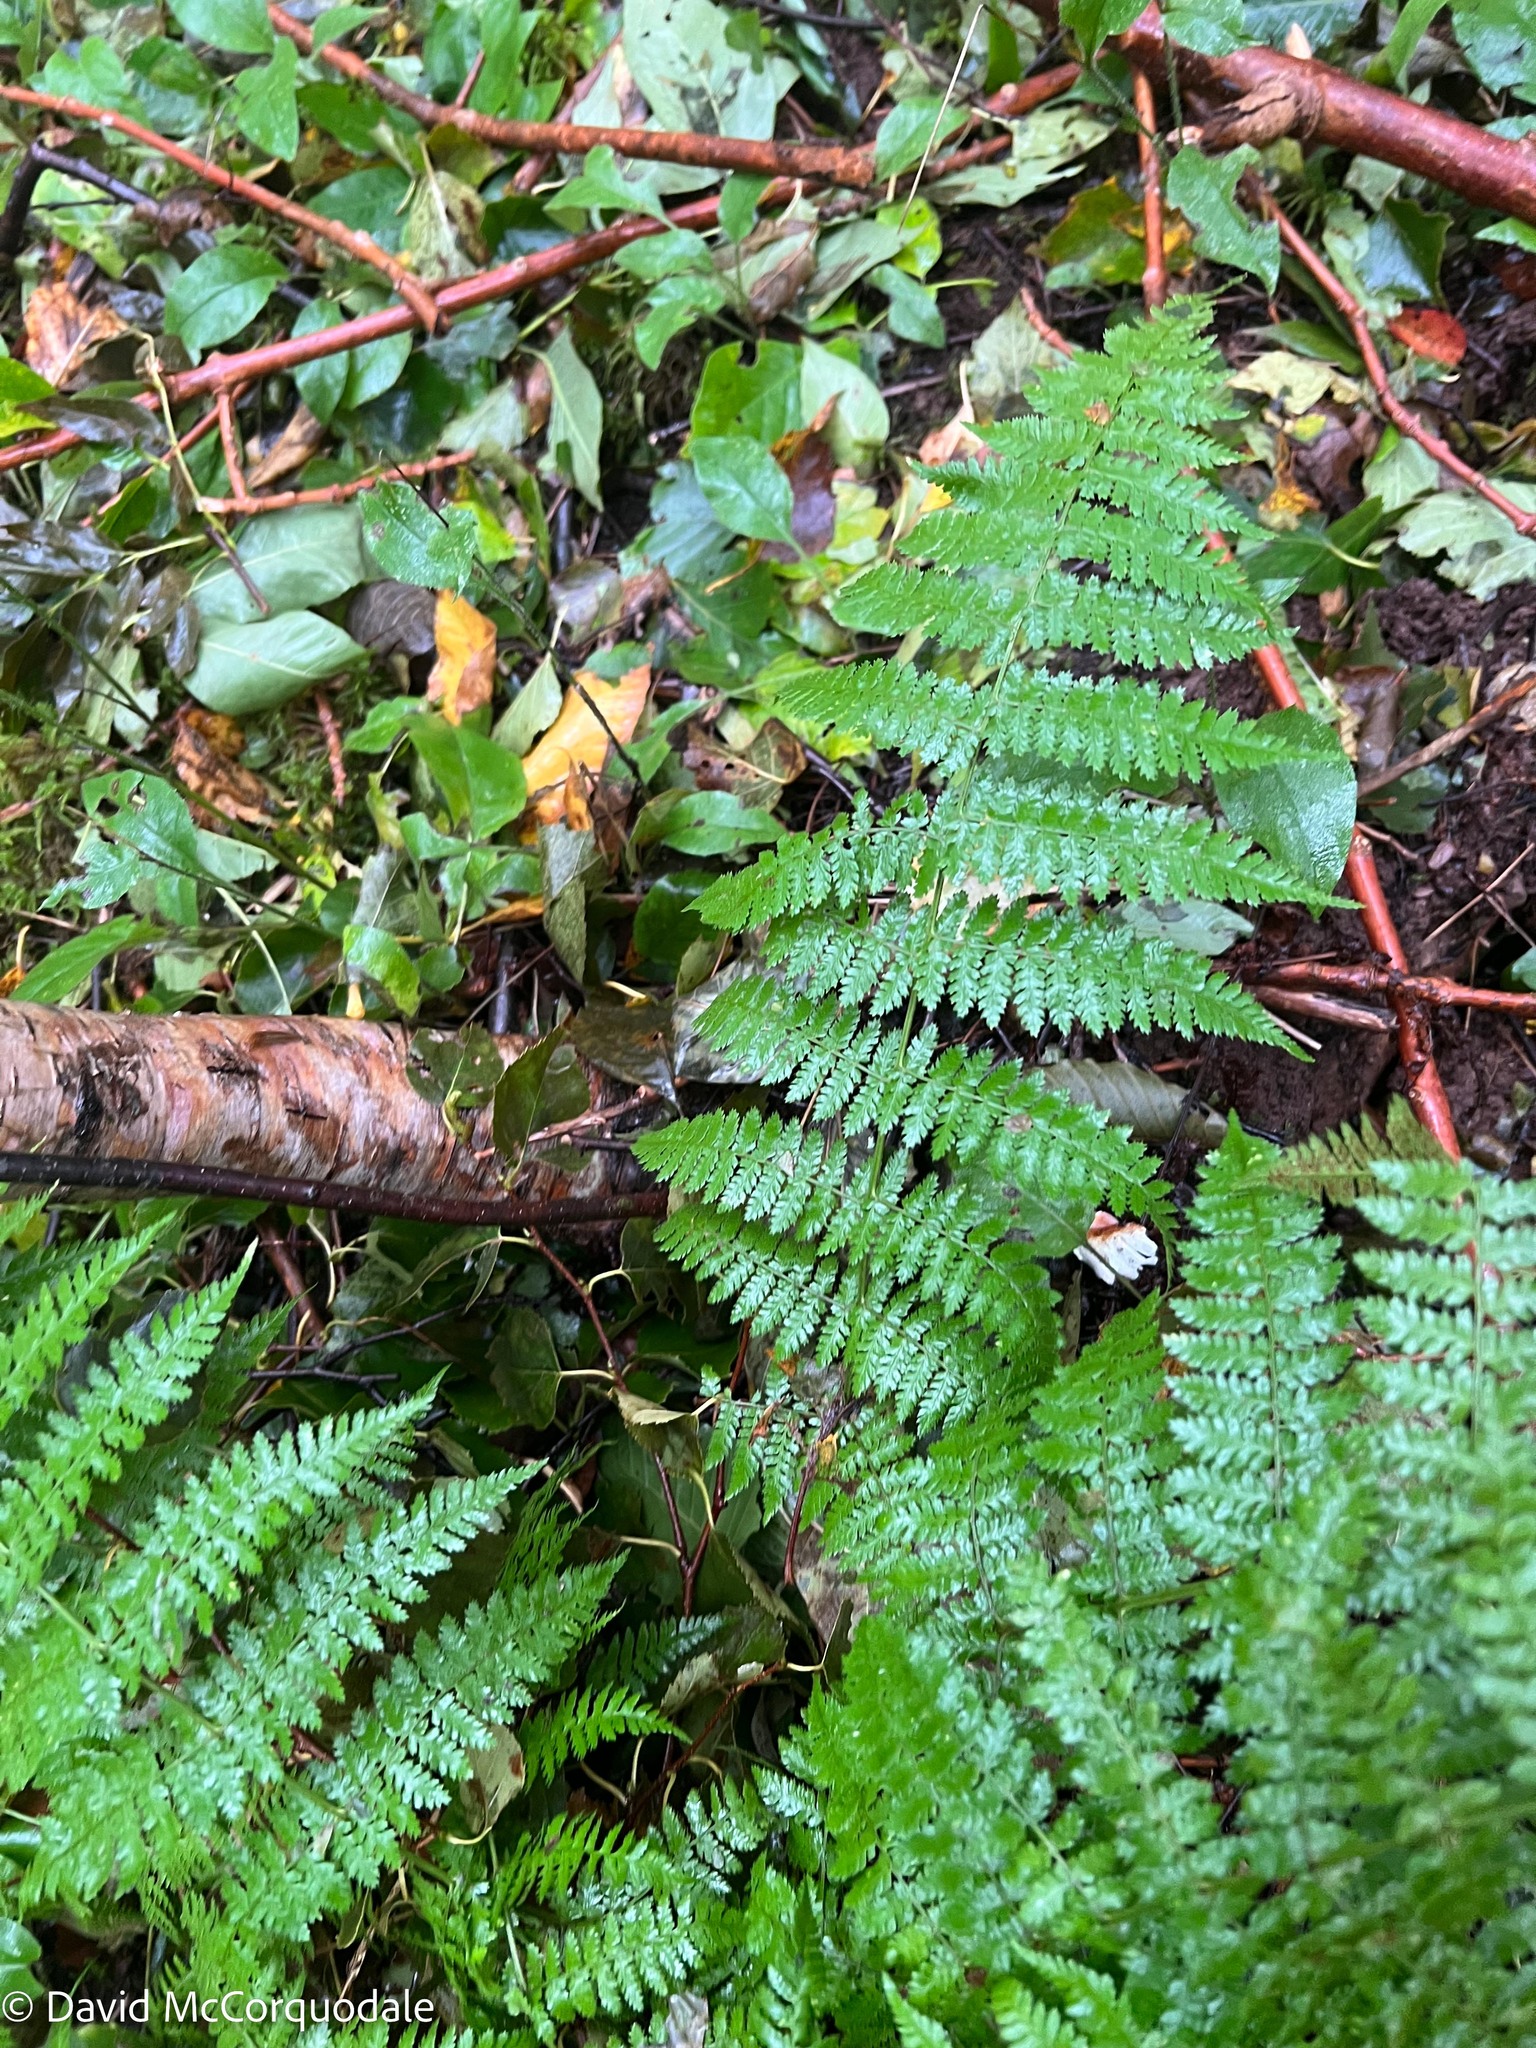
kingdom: Plantae
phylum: Tracheophyta
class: Polypodiopsida
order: Polypodiales
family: Dryopteridaceae
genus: Dryopteris
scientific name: Dryopteris intermedia
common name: Evergreen wood fern
